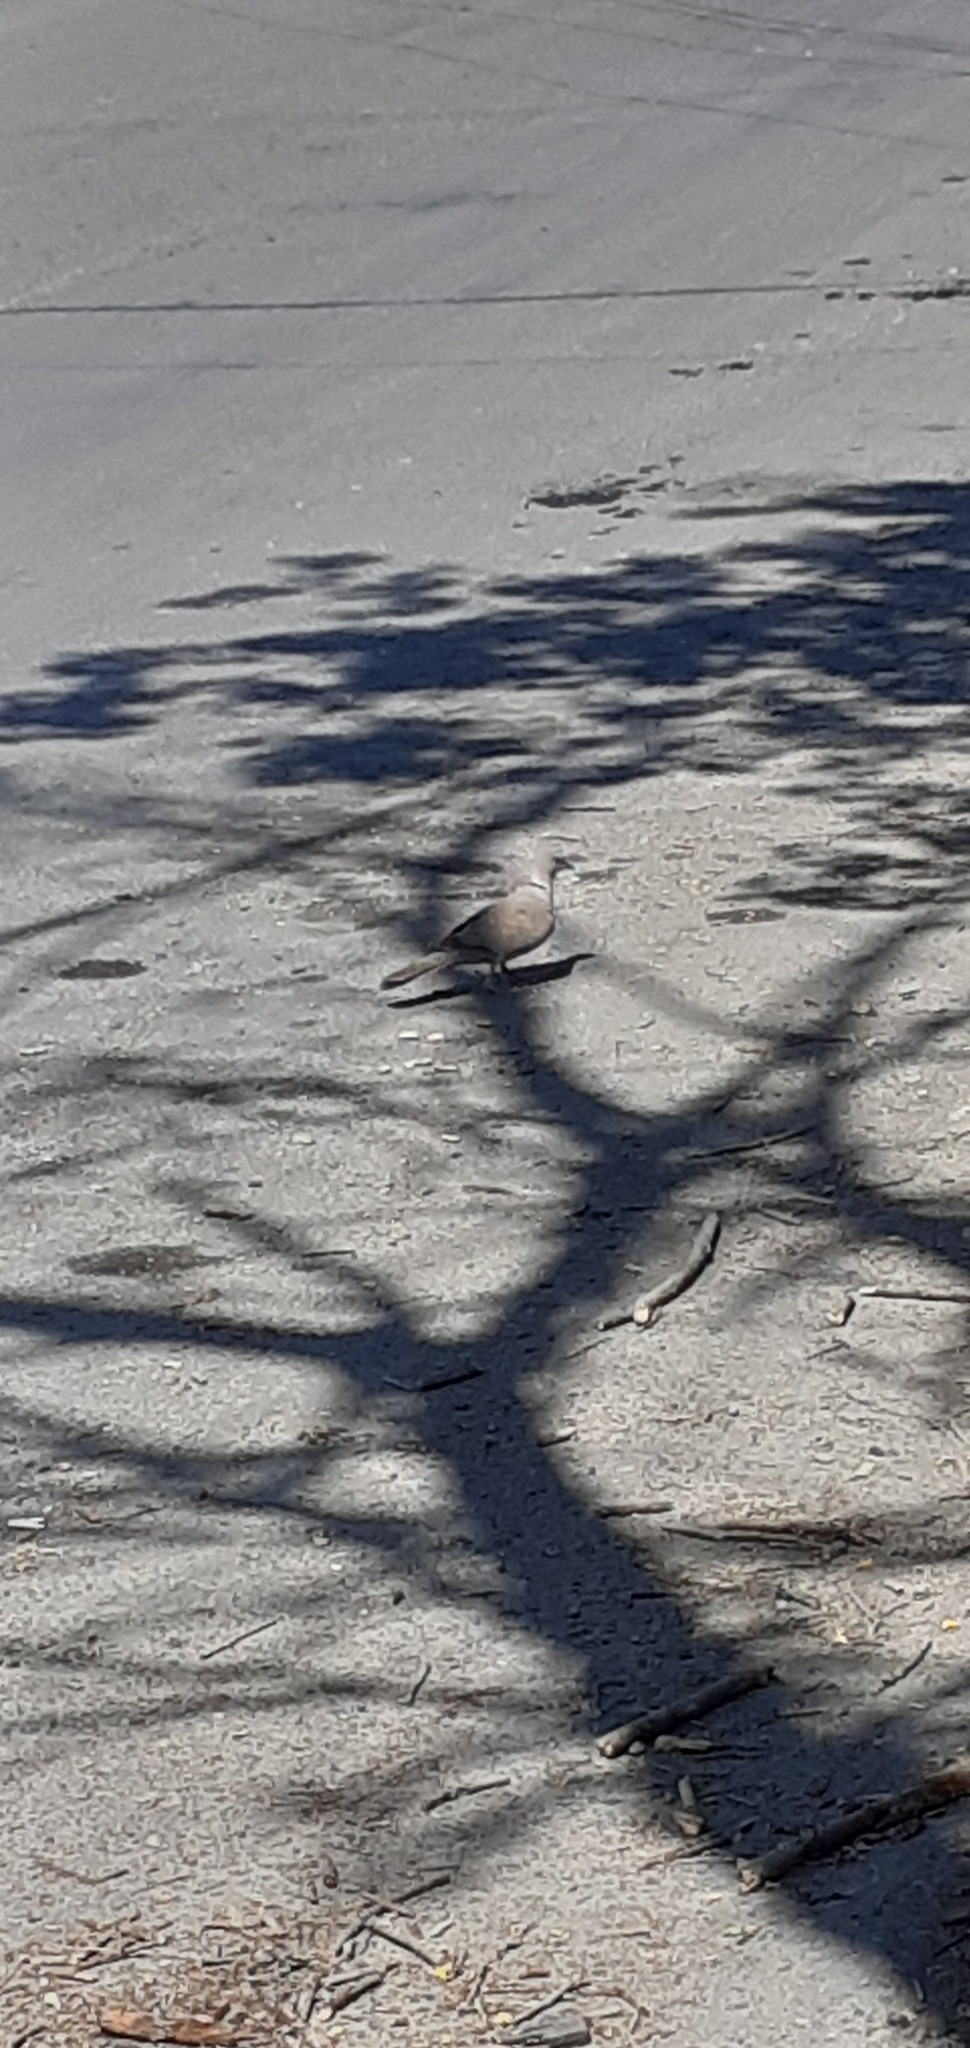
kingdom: Animalia
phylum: Chordata
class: Aves
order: Columbiformes
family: Columbidae
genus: Streptopelia
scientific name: Streptopelia decaocto
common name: Eurasian collared dove
